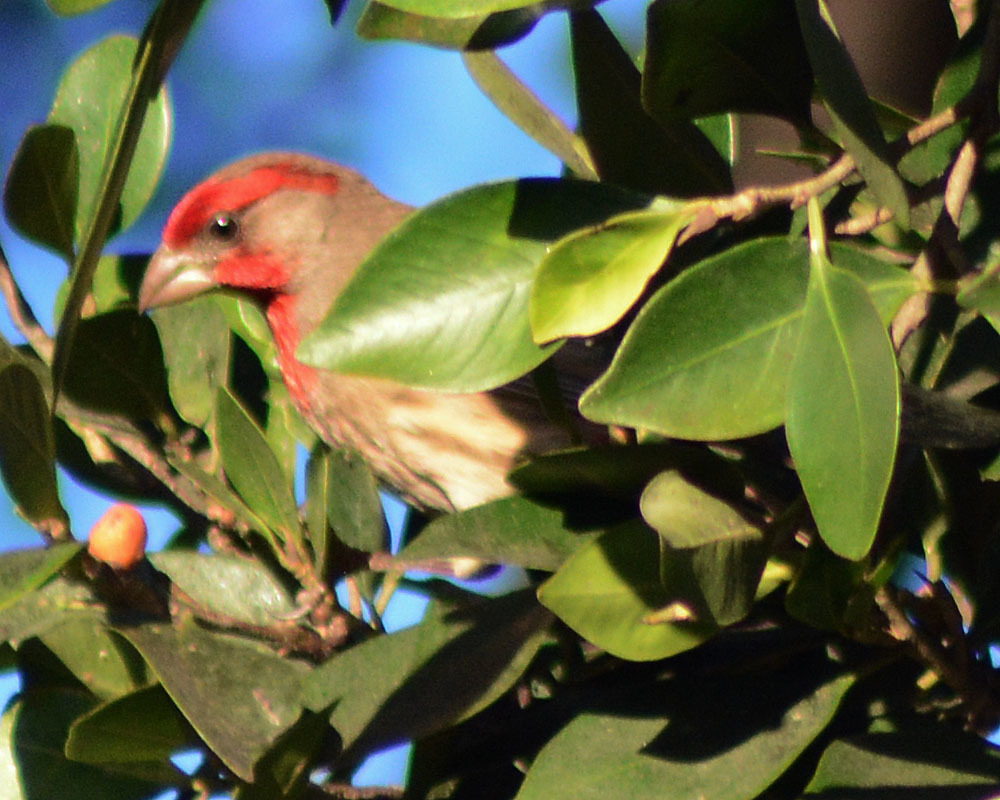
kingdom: Animalia
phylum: Chordata
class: Aves
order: Passeriformes
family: Fringillidae
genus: Haemorhous
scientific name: Haemorhous mexicanus
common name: House finch
